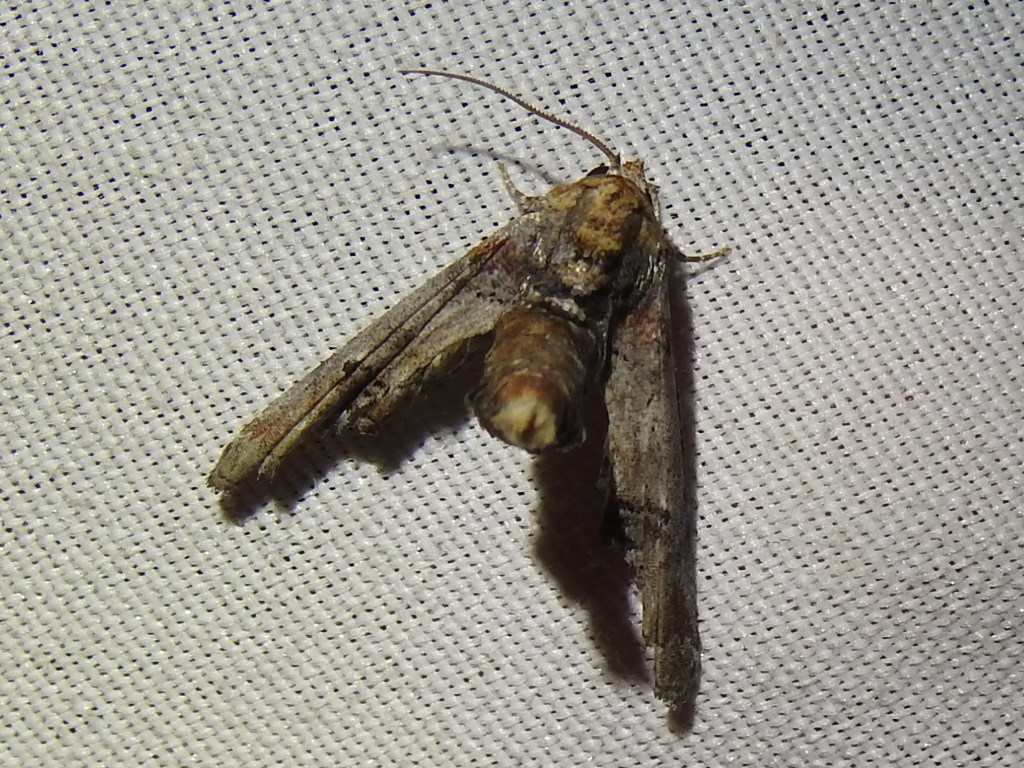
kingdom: Animalia
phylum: Arthropoda
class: Insecta
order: Lepidoptera
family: Euteliidae
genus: Marathyssa
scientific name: Marathyssa inficita
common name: Dark marathyssa moth
